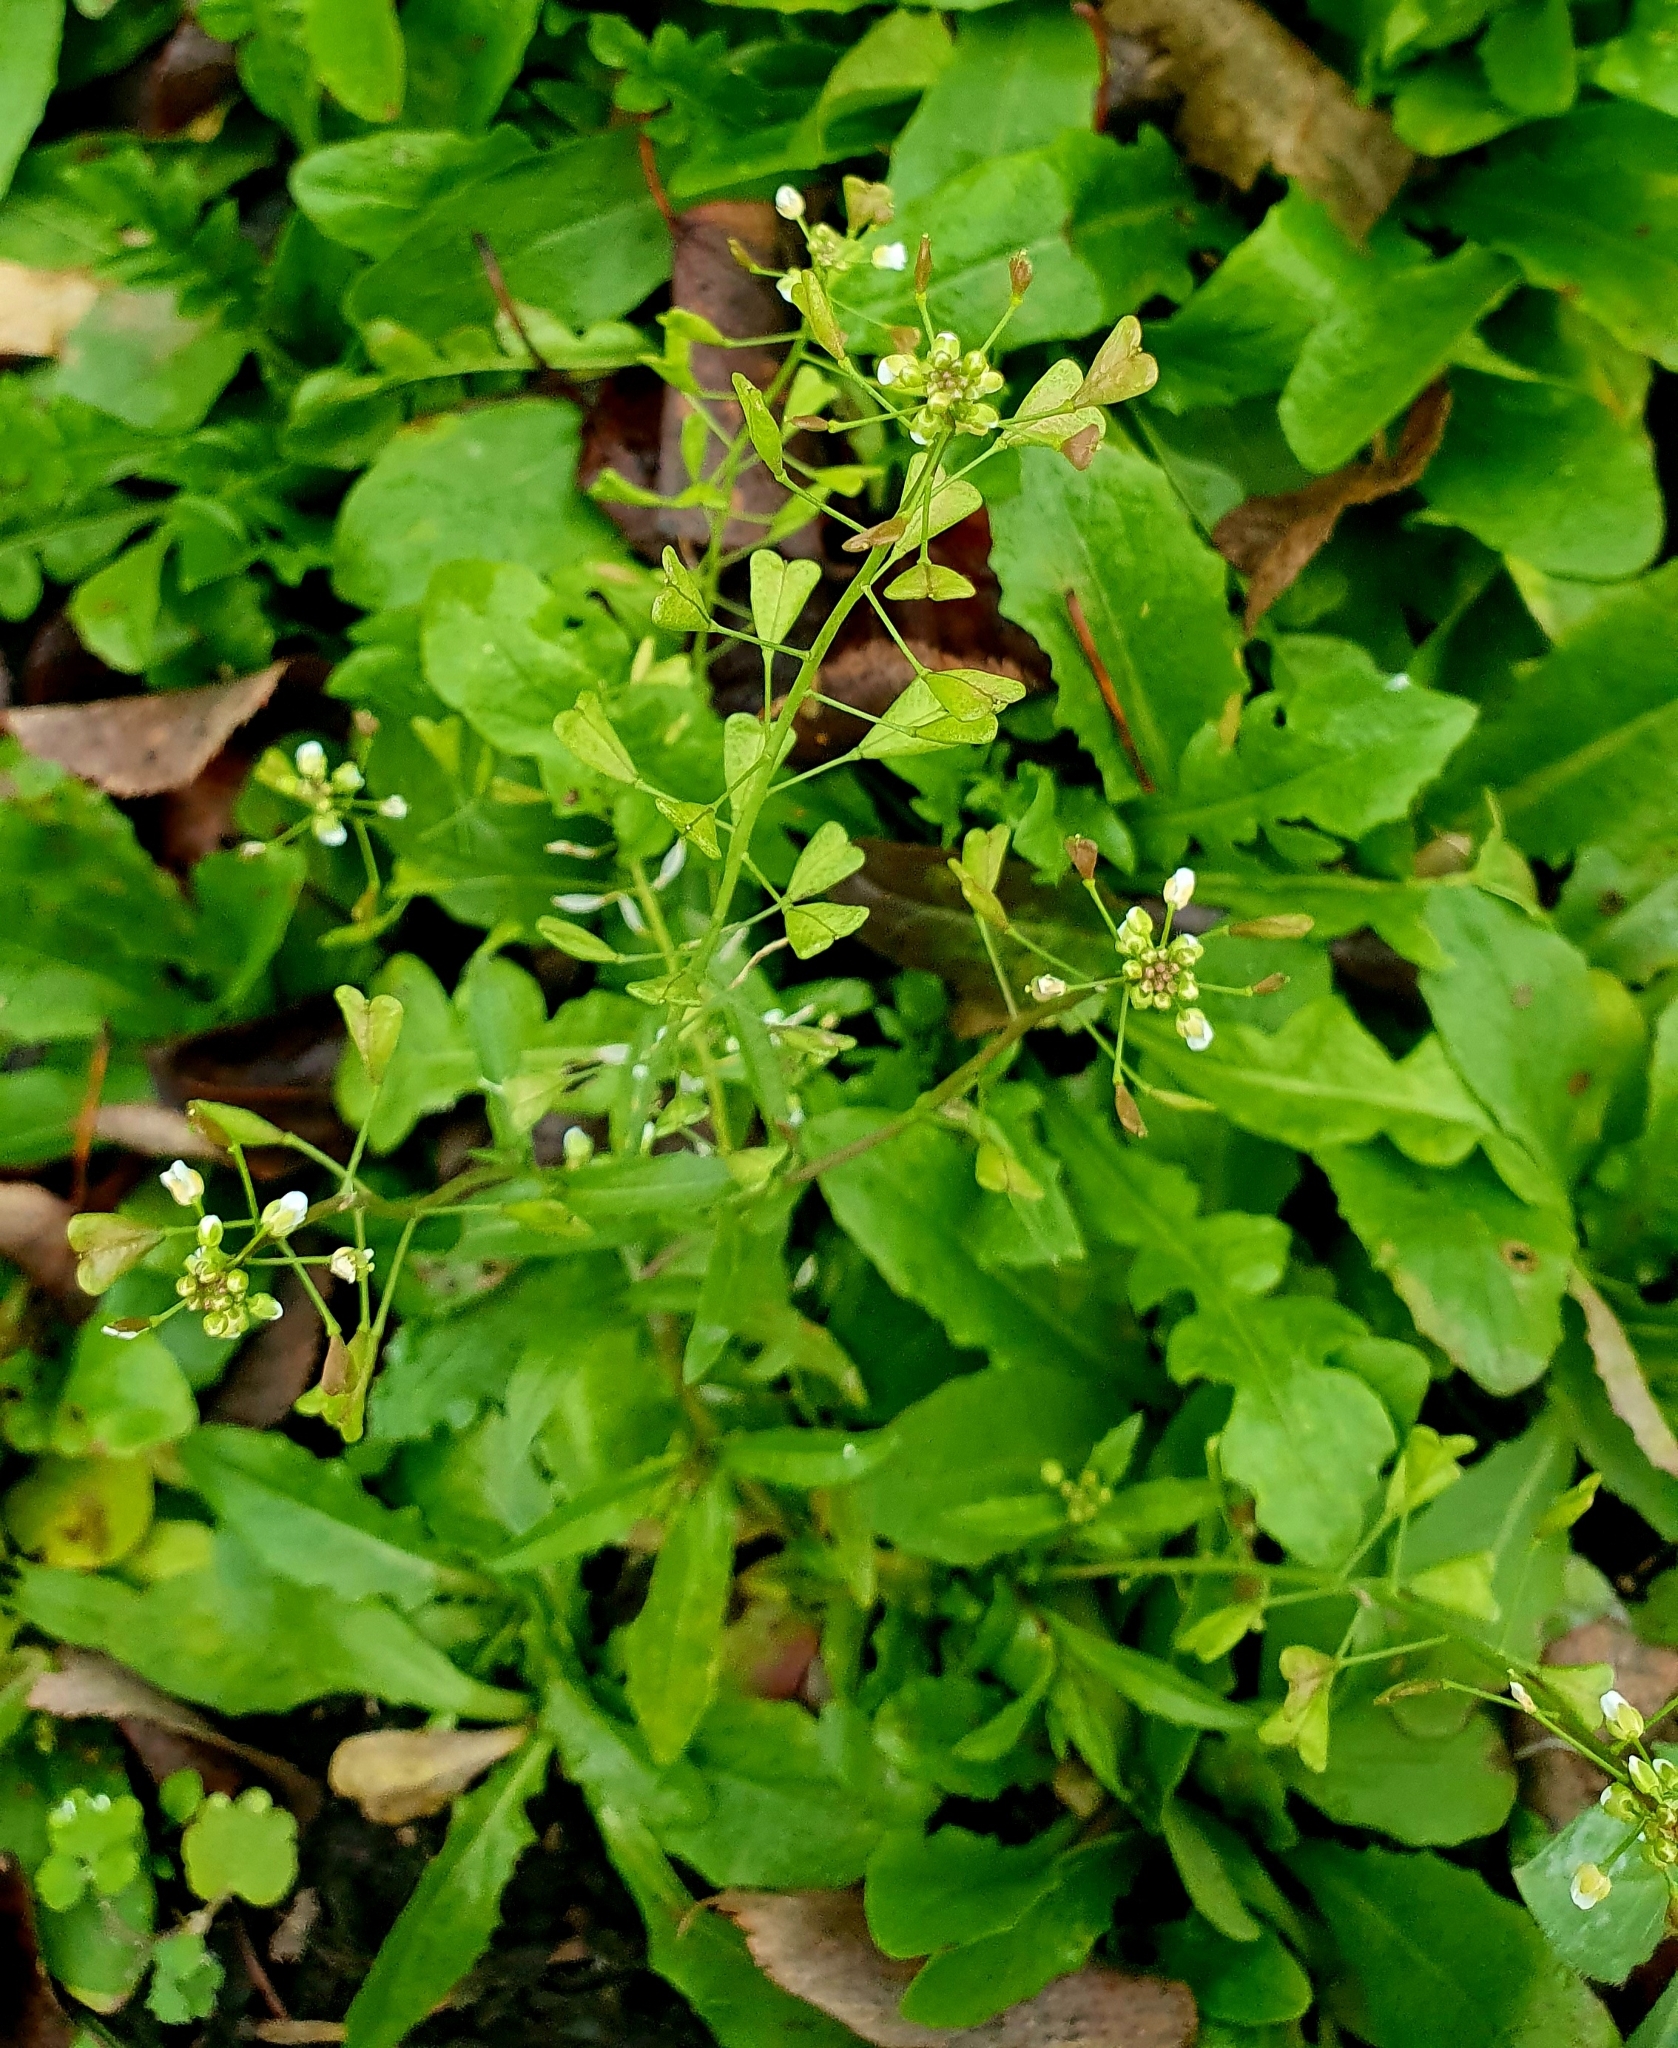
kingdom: Plantae
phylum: Tracheophyta
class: Magnoliopsida
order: Brassicales
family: Brassicaceae
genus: Capsella
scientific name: Capsella bursa-pastoris
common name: Shepherd's purse
